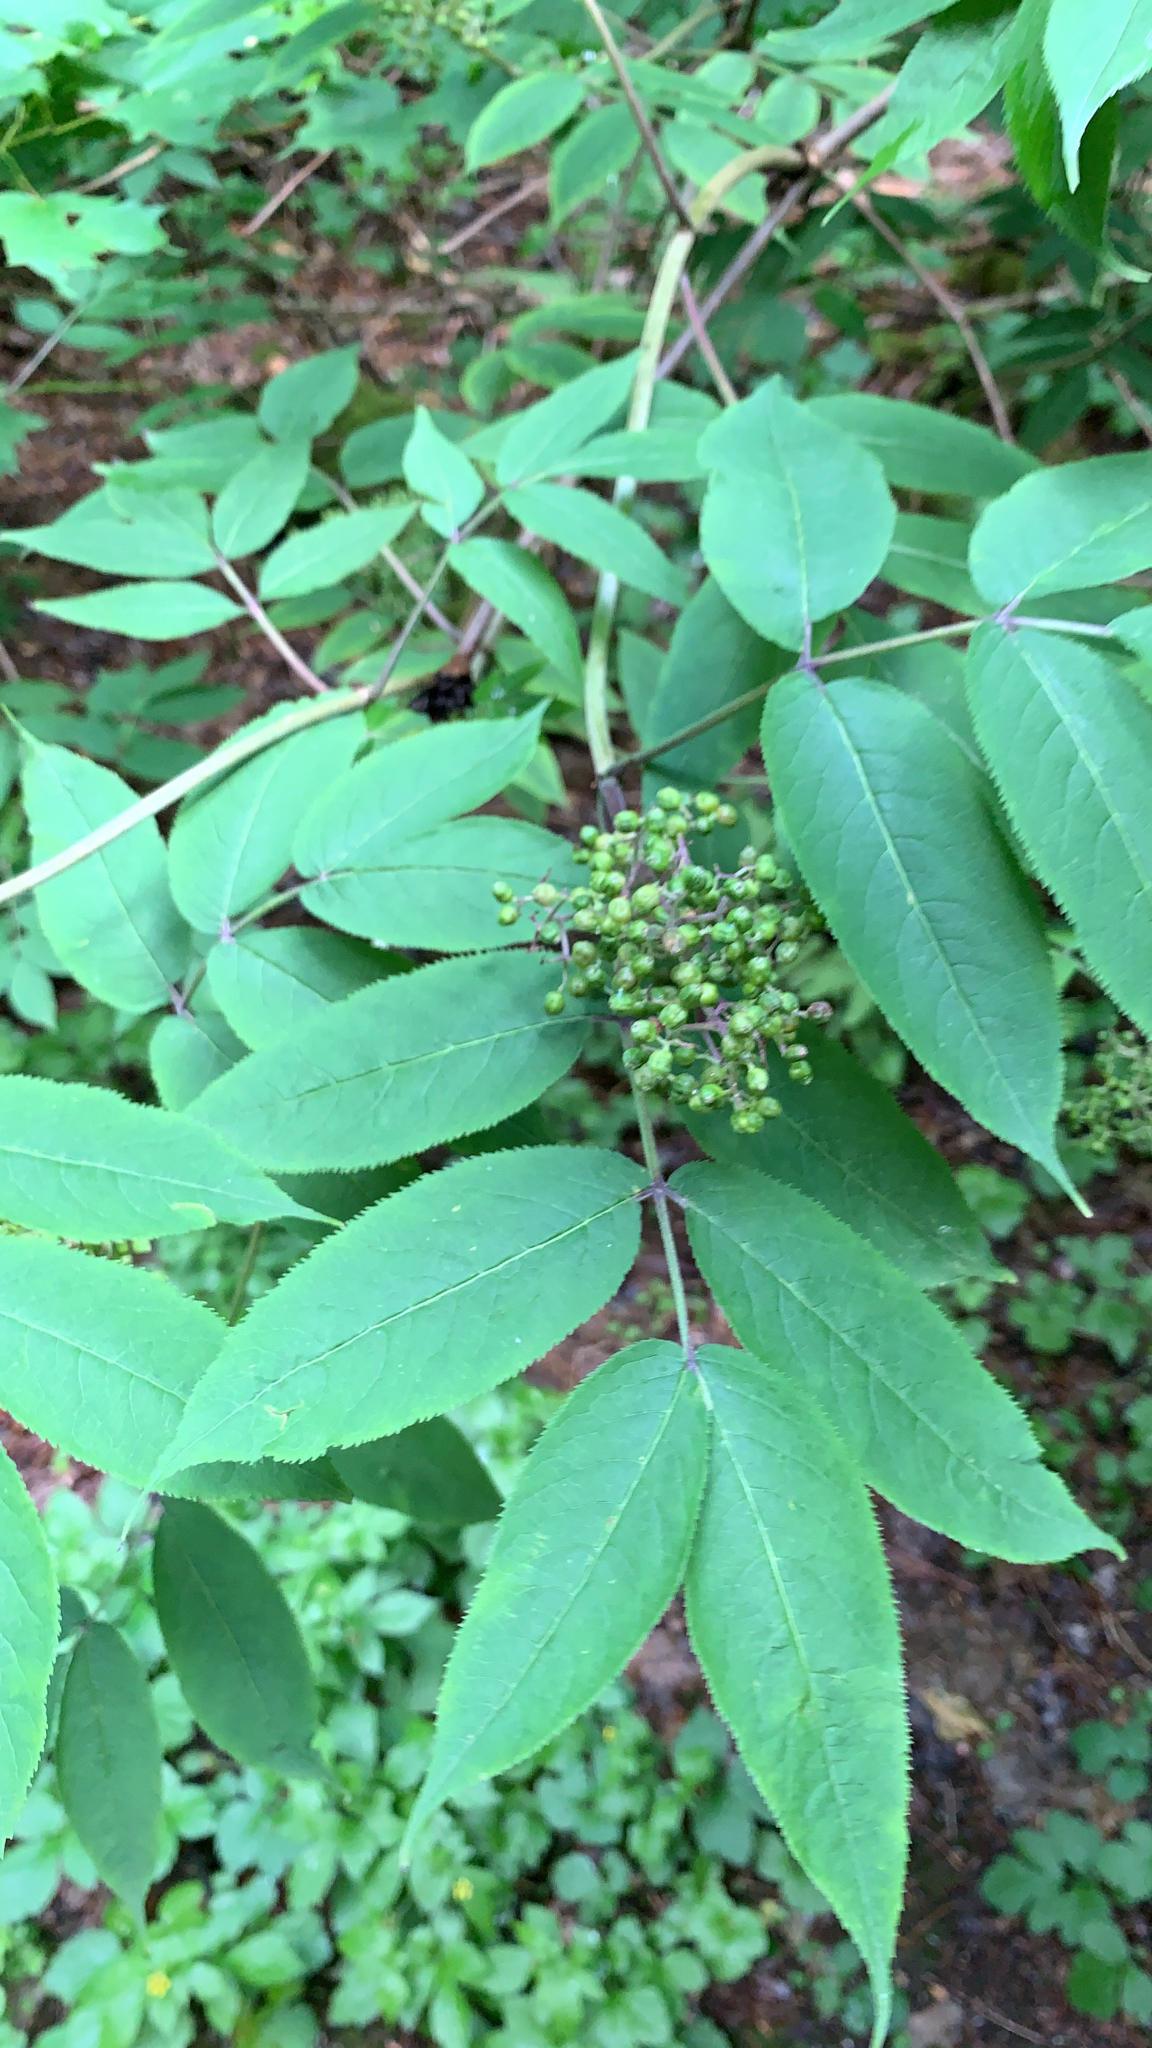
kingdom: Plantae
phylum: Tracheophyta
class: Magnoliopsida
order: Dipsacales
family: Viburnaceae
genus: Sambucus
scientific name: Sambucus racemosa
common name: Red-berried elder
